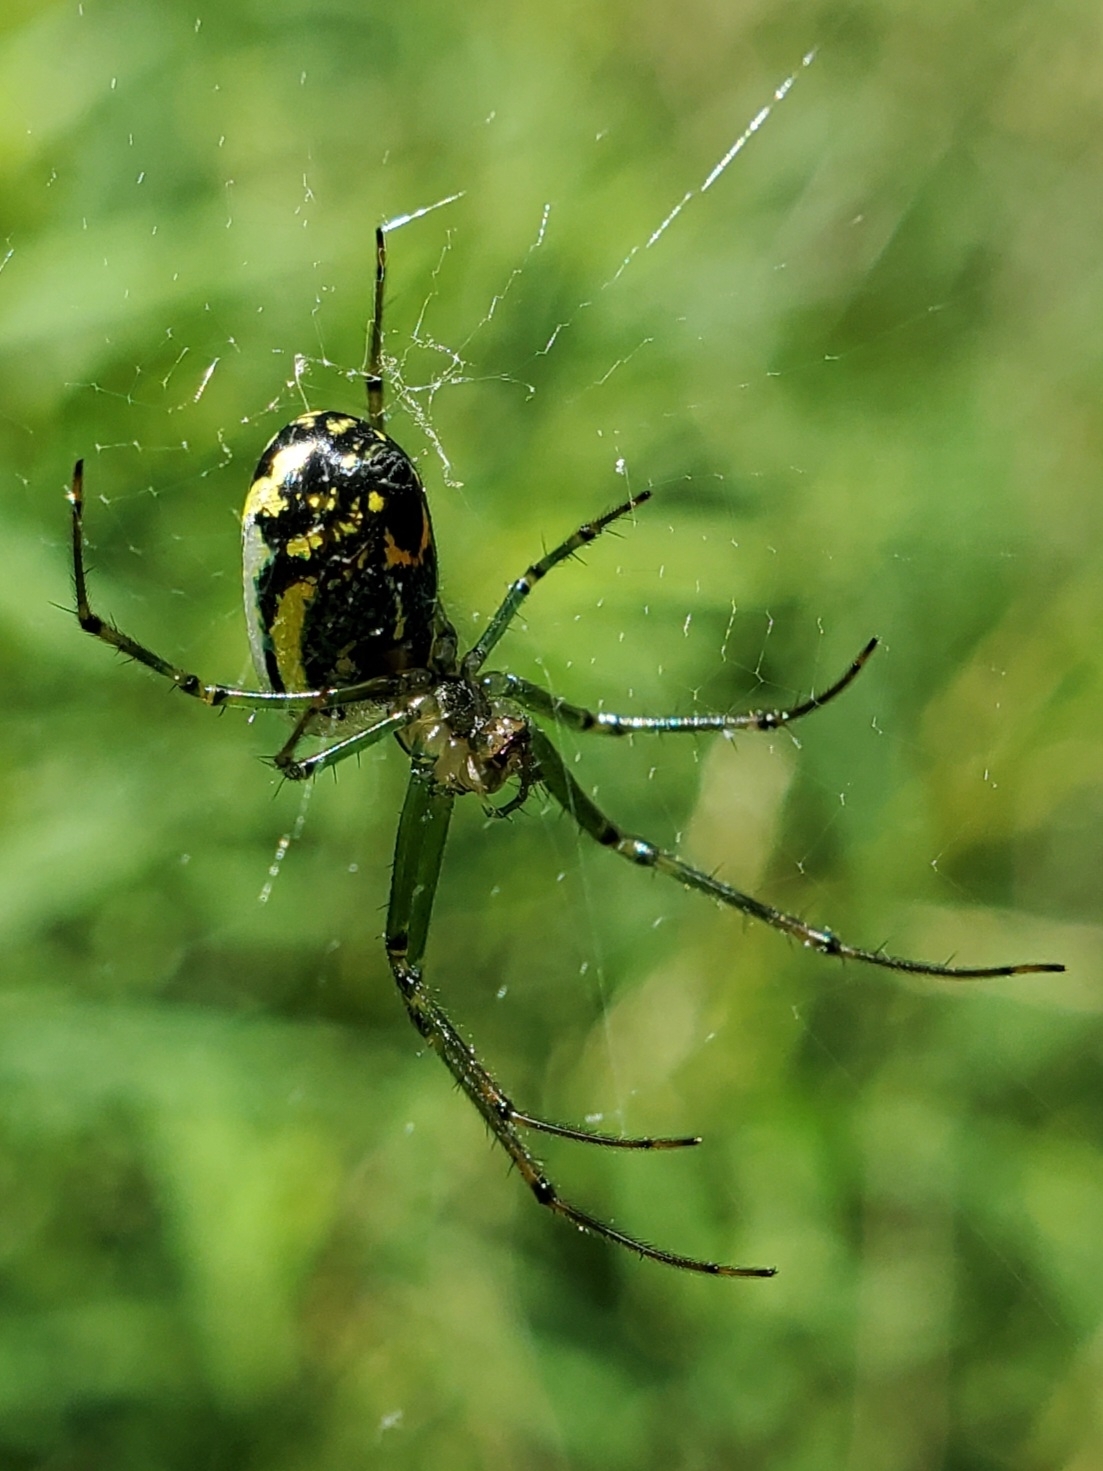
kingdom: Animalia
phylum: Arthropoda
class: Arachnida
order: Araneae
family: Tetragnathidae
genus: Leucauge
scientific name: Leucauge venusta
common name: Longjawed orb weavers
